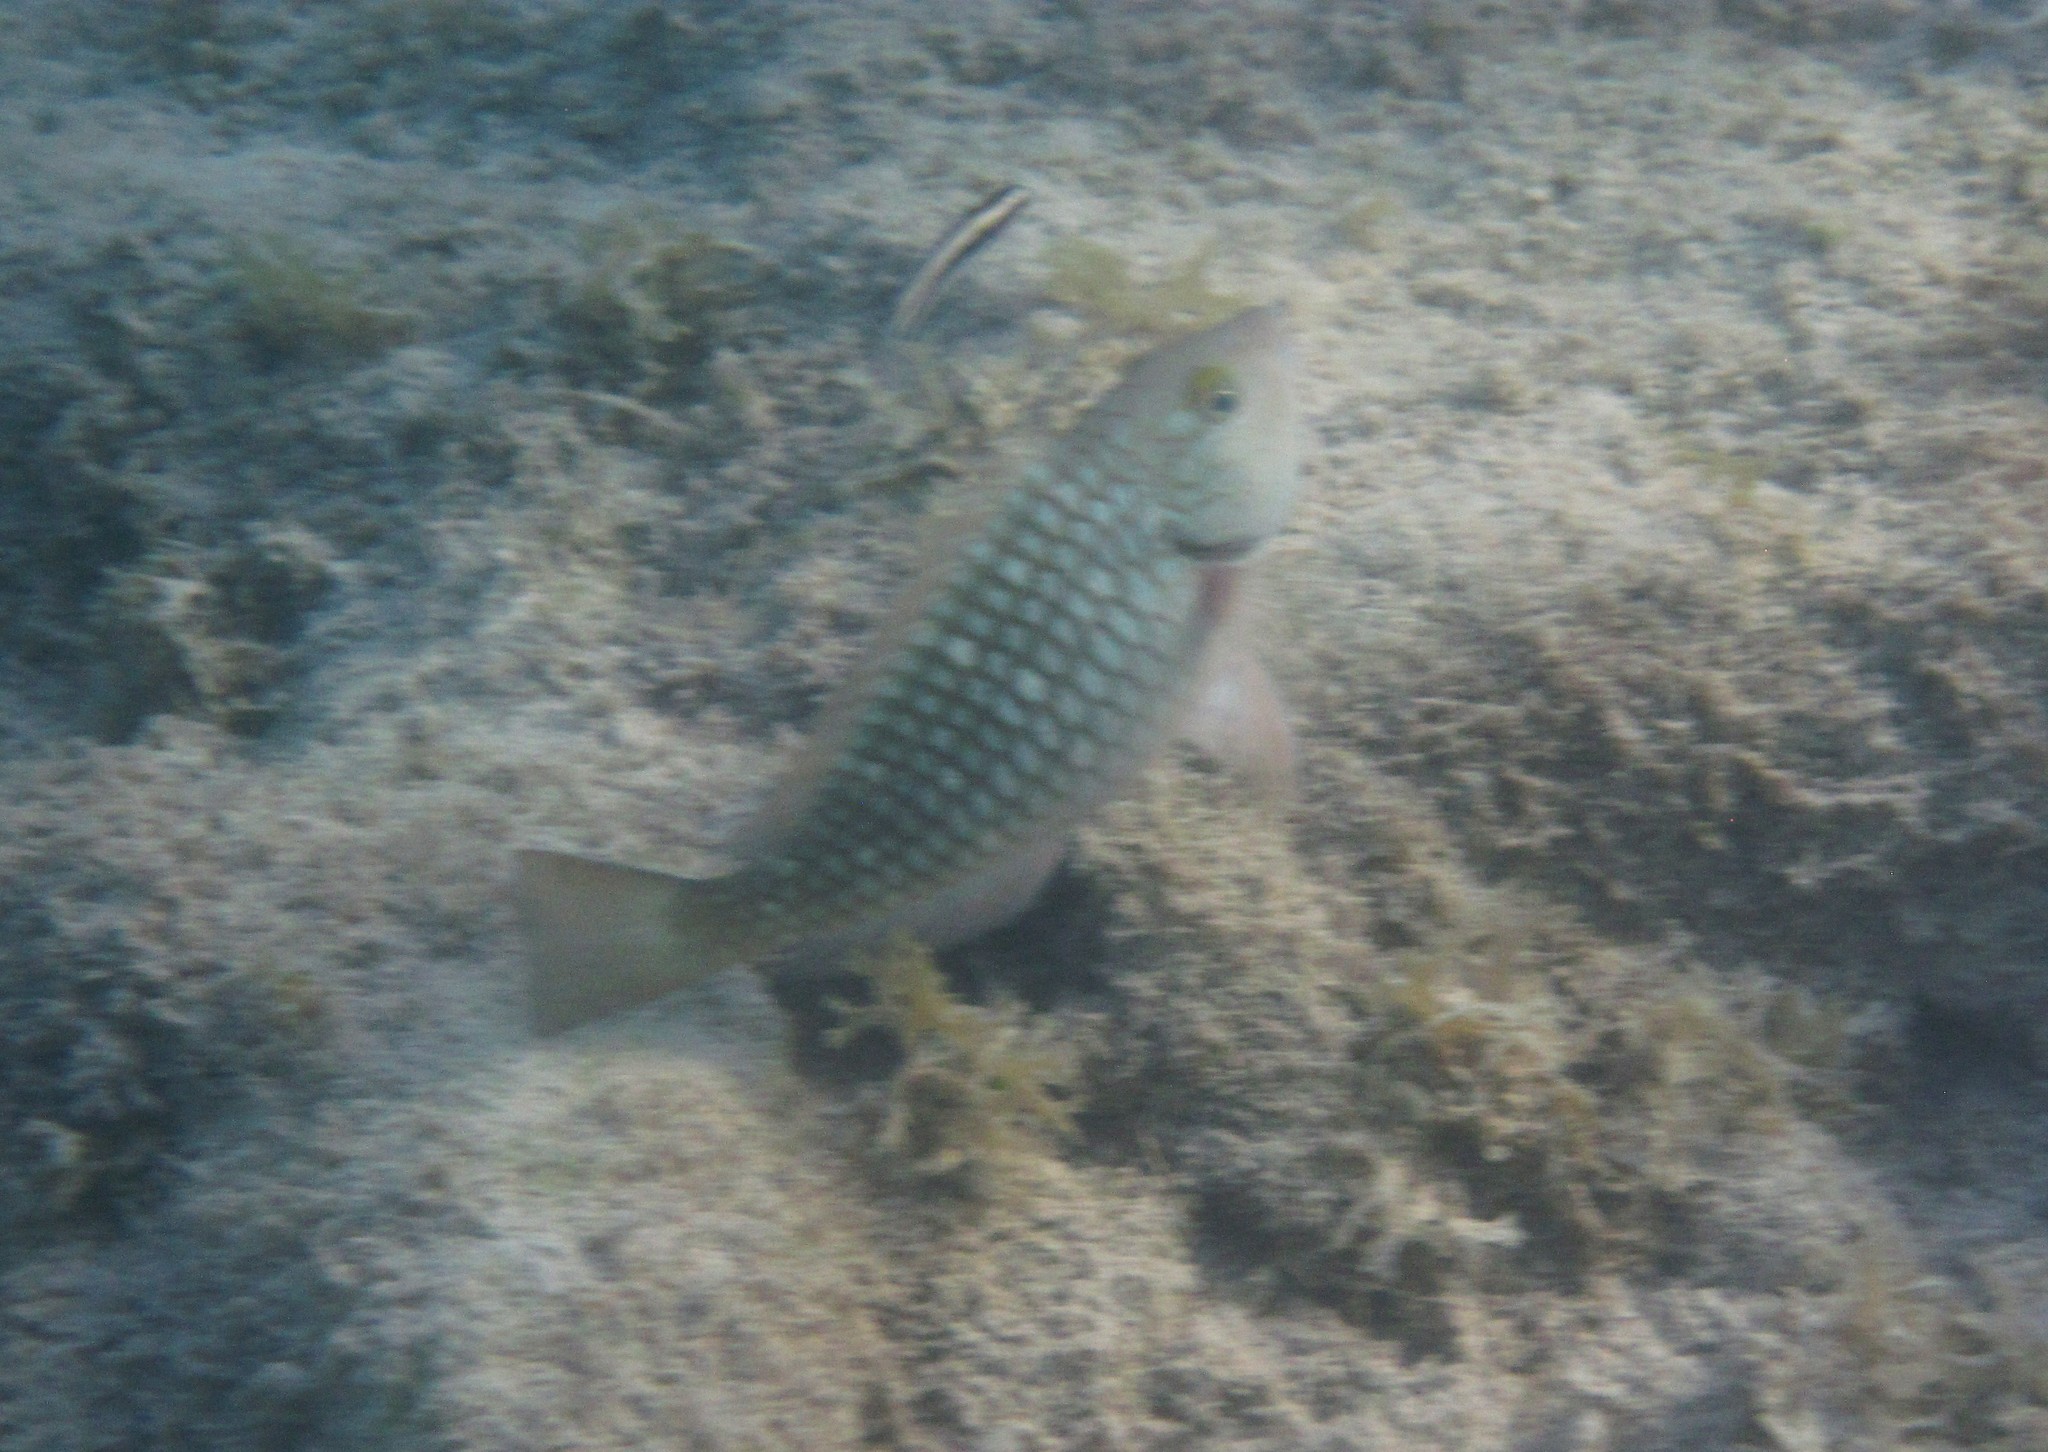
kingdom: Animalia
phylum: Chordata
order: Perciformes
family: Scaridae
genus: Sparisoma
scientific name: Sparisoma viride
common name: Stoplight parrotfish
